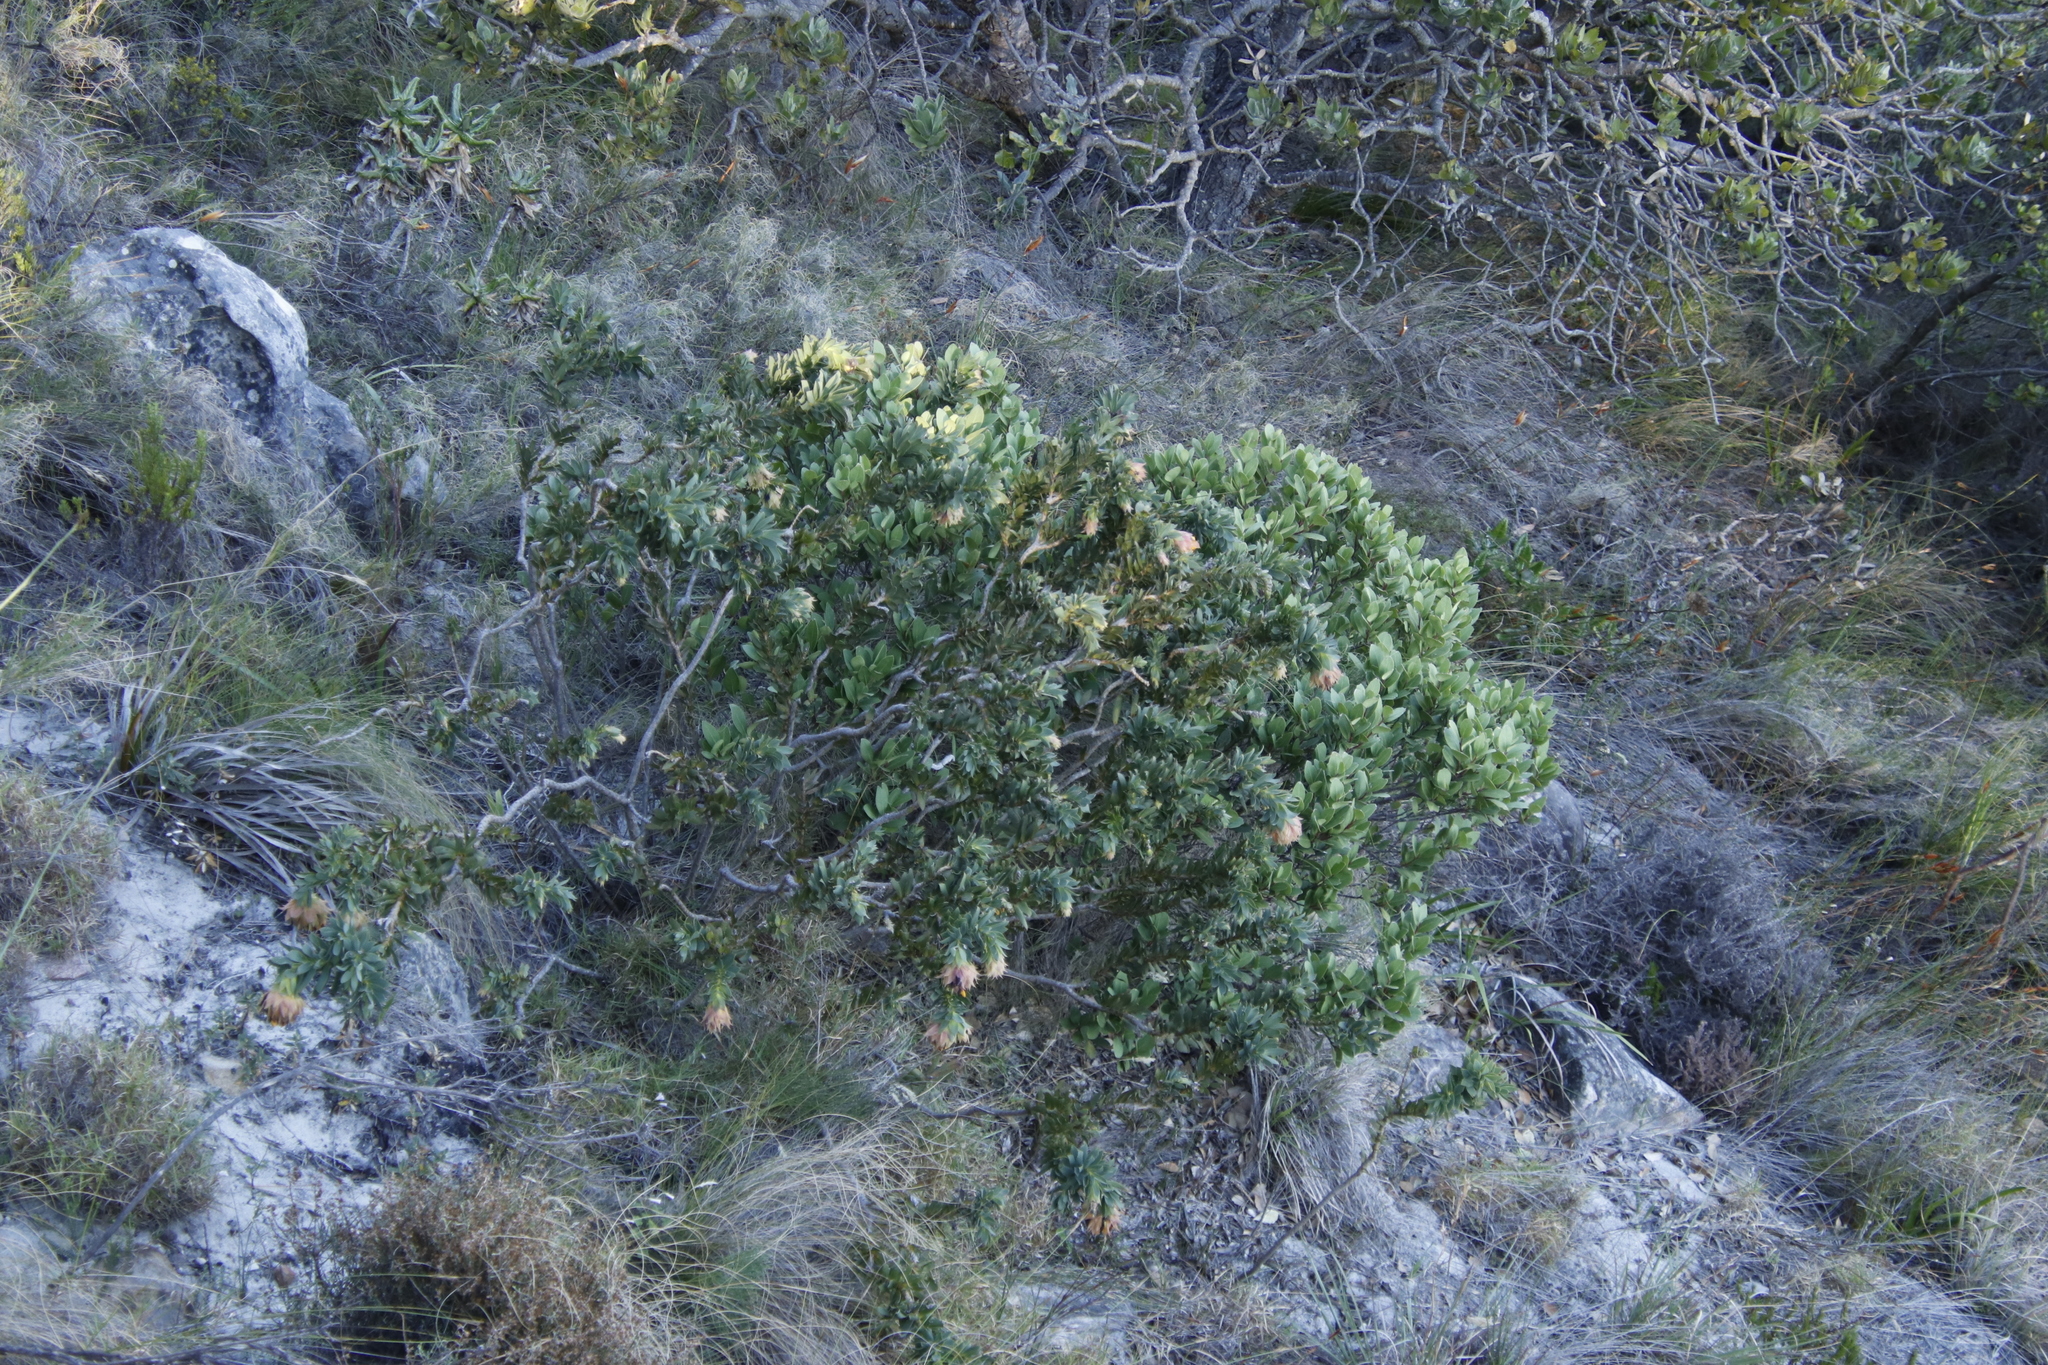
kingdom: Plantae
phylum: Tracheophyta
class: Magnoliopsida
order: Fabales
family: Fabaceae
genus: Liparia
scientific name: Liparia splendens
